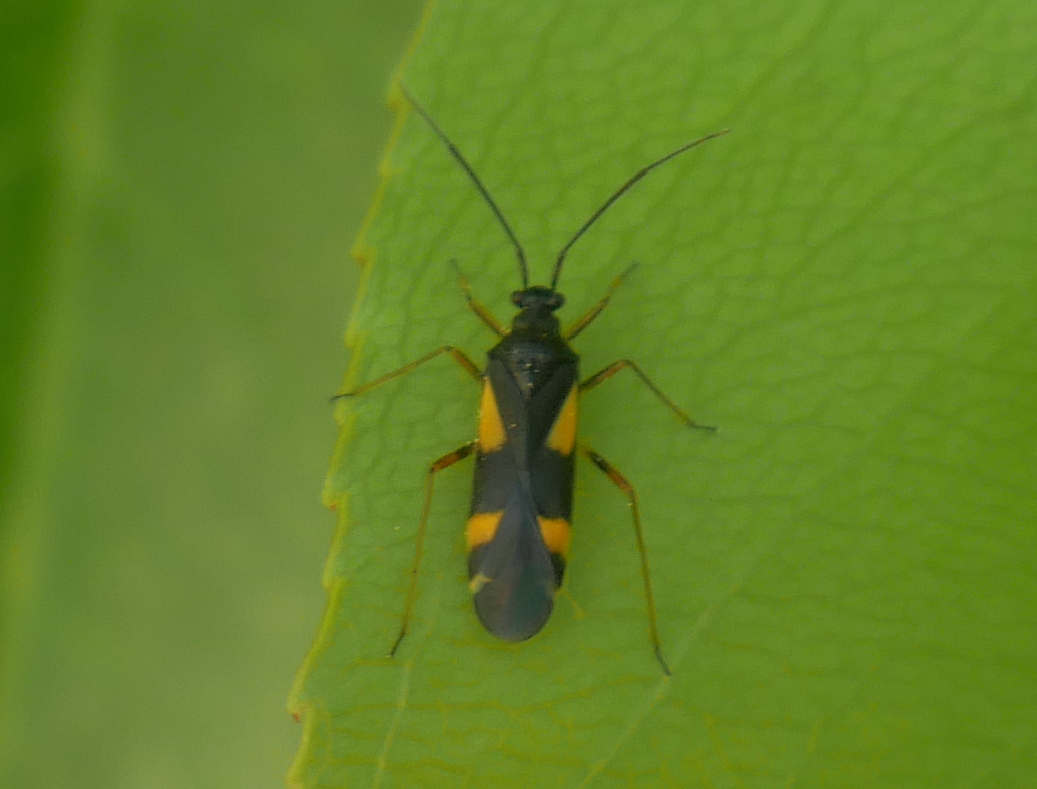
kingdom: Animalia
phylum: Arthropoda
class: Insecta
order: Hemiptera
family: Miridae
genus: Dryophilocoris
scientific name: Dryophilocoris flavoquadrimaculatus
